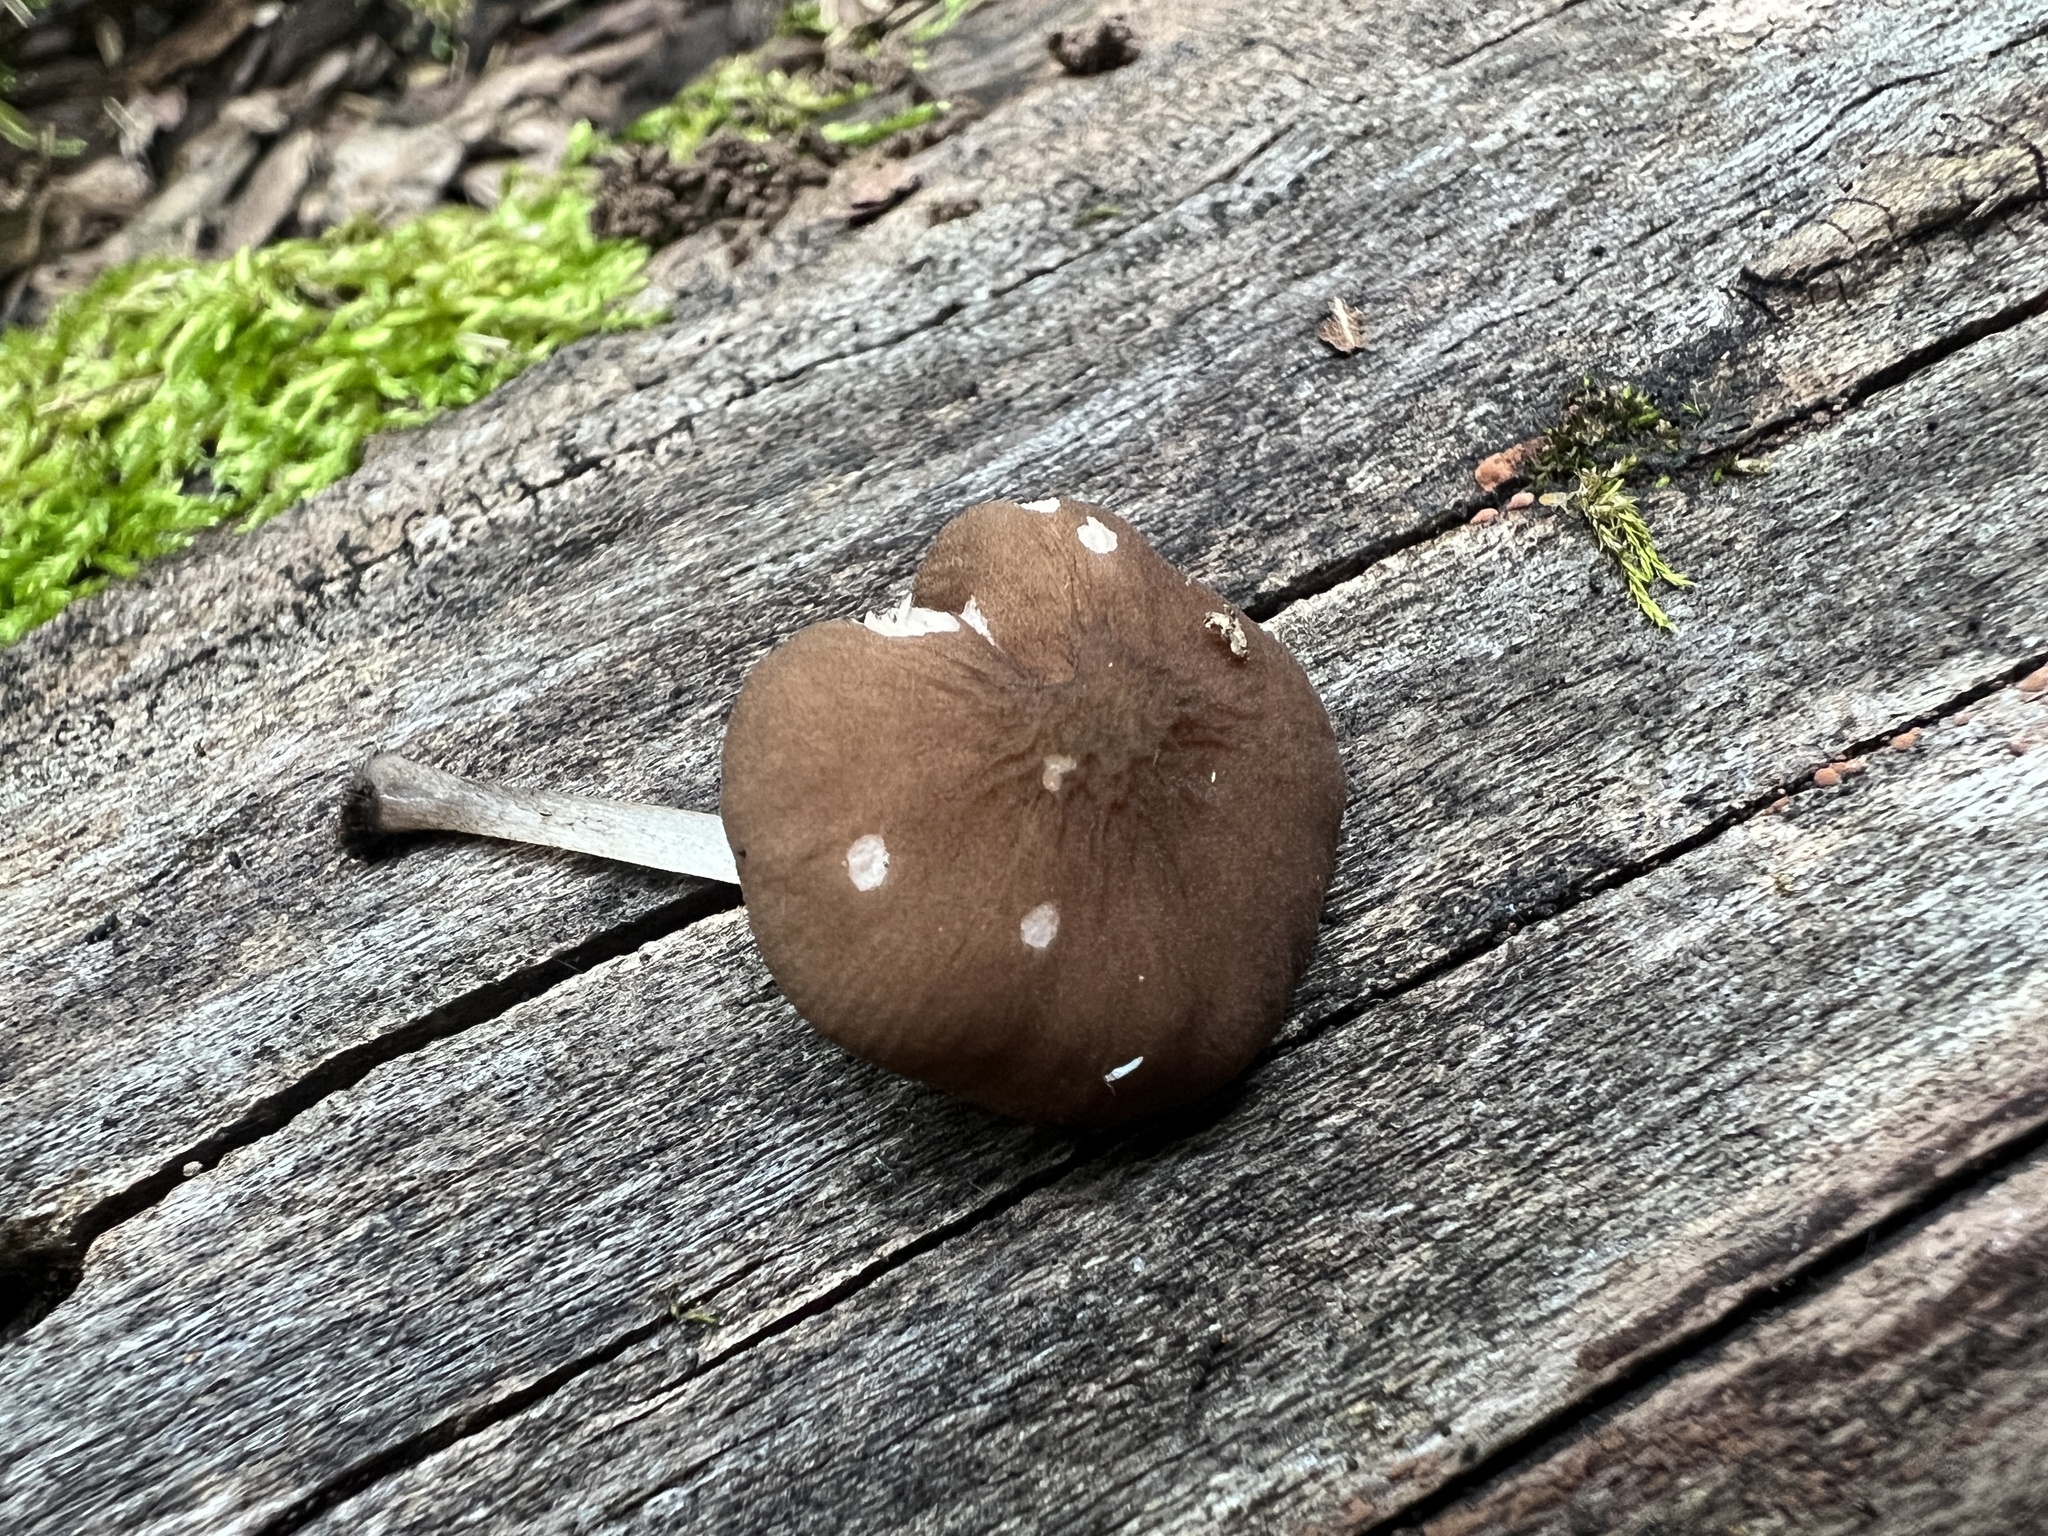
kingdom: Fungi
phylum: Basidiomycota
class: Agaricomycetes
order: Agaricales
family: Pluteaceae
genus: Pluteus
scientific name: Pluteus podospileus
